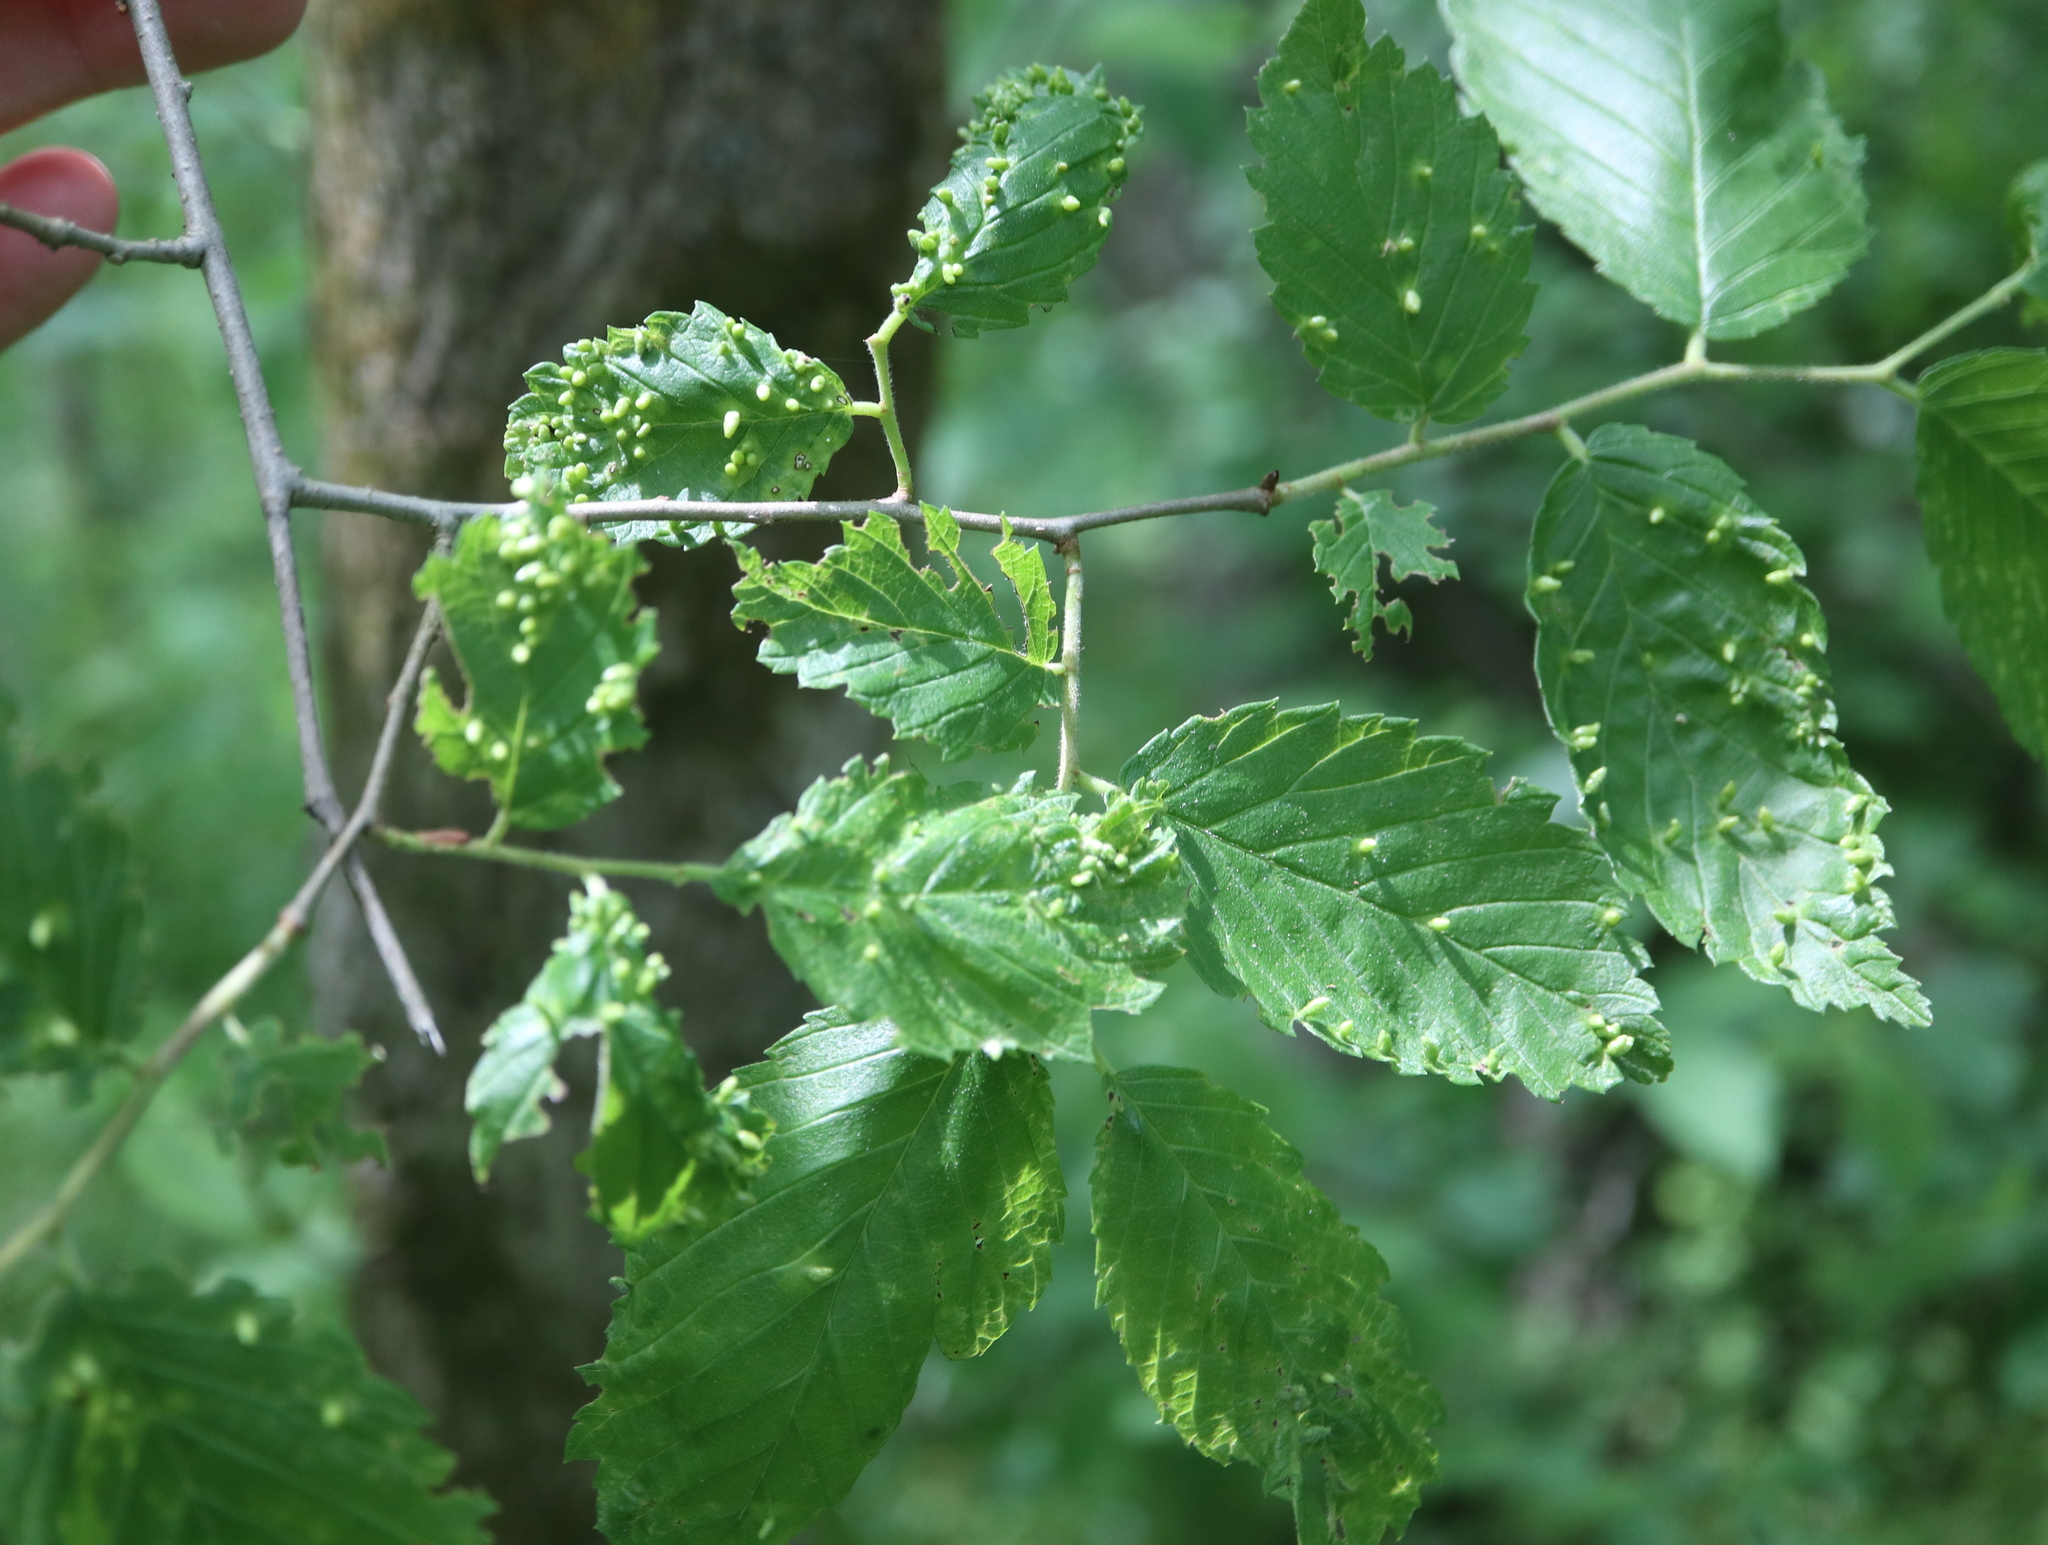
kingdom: Animalia
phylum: Arthropoda
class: Arachnida
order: Trombidiformes
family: Eriophyidae
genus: Aceria
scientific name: Aceria
